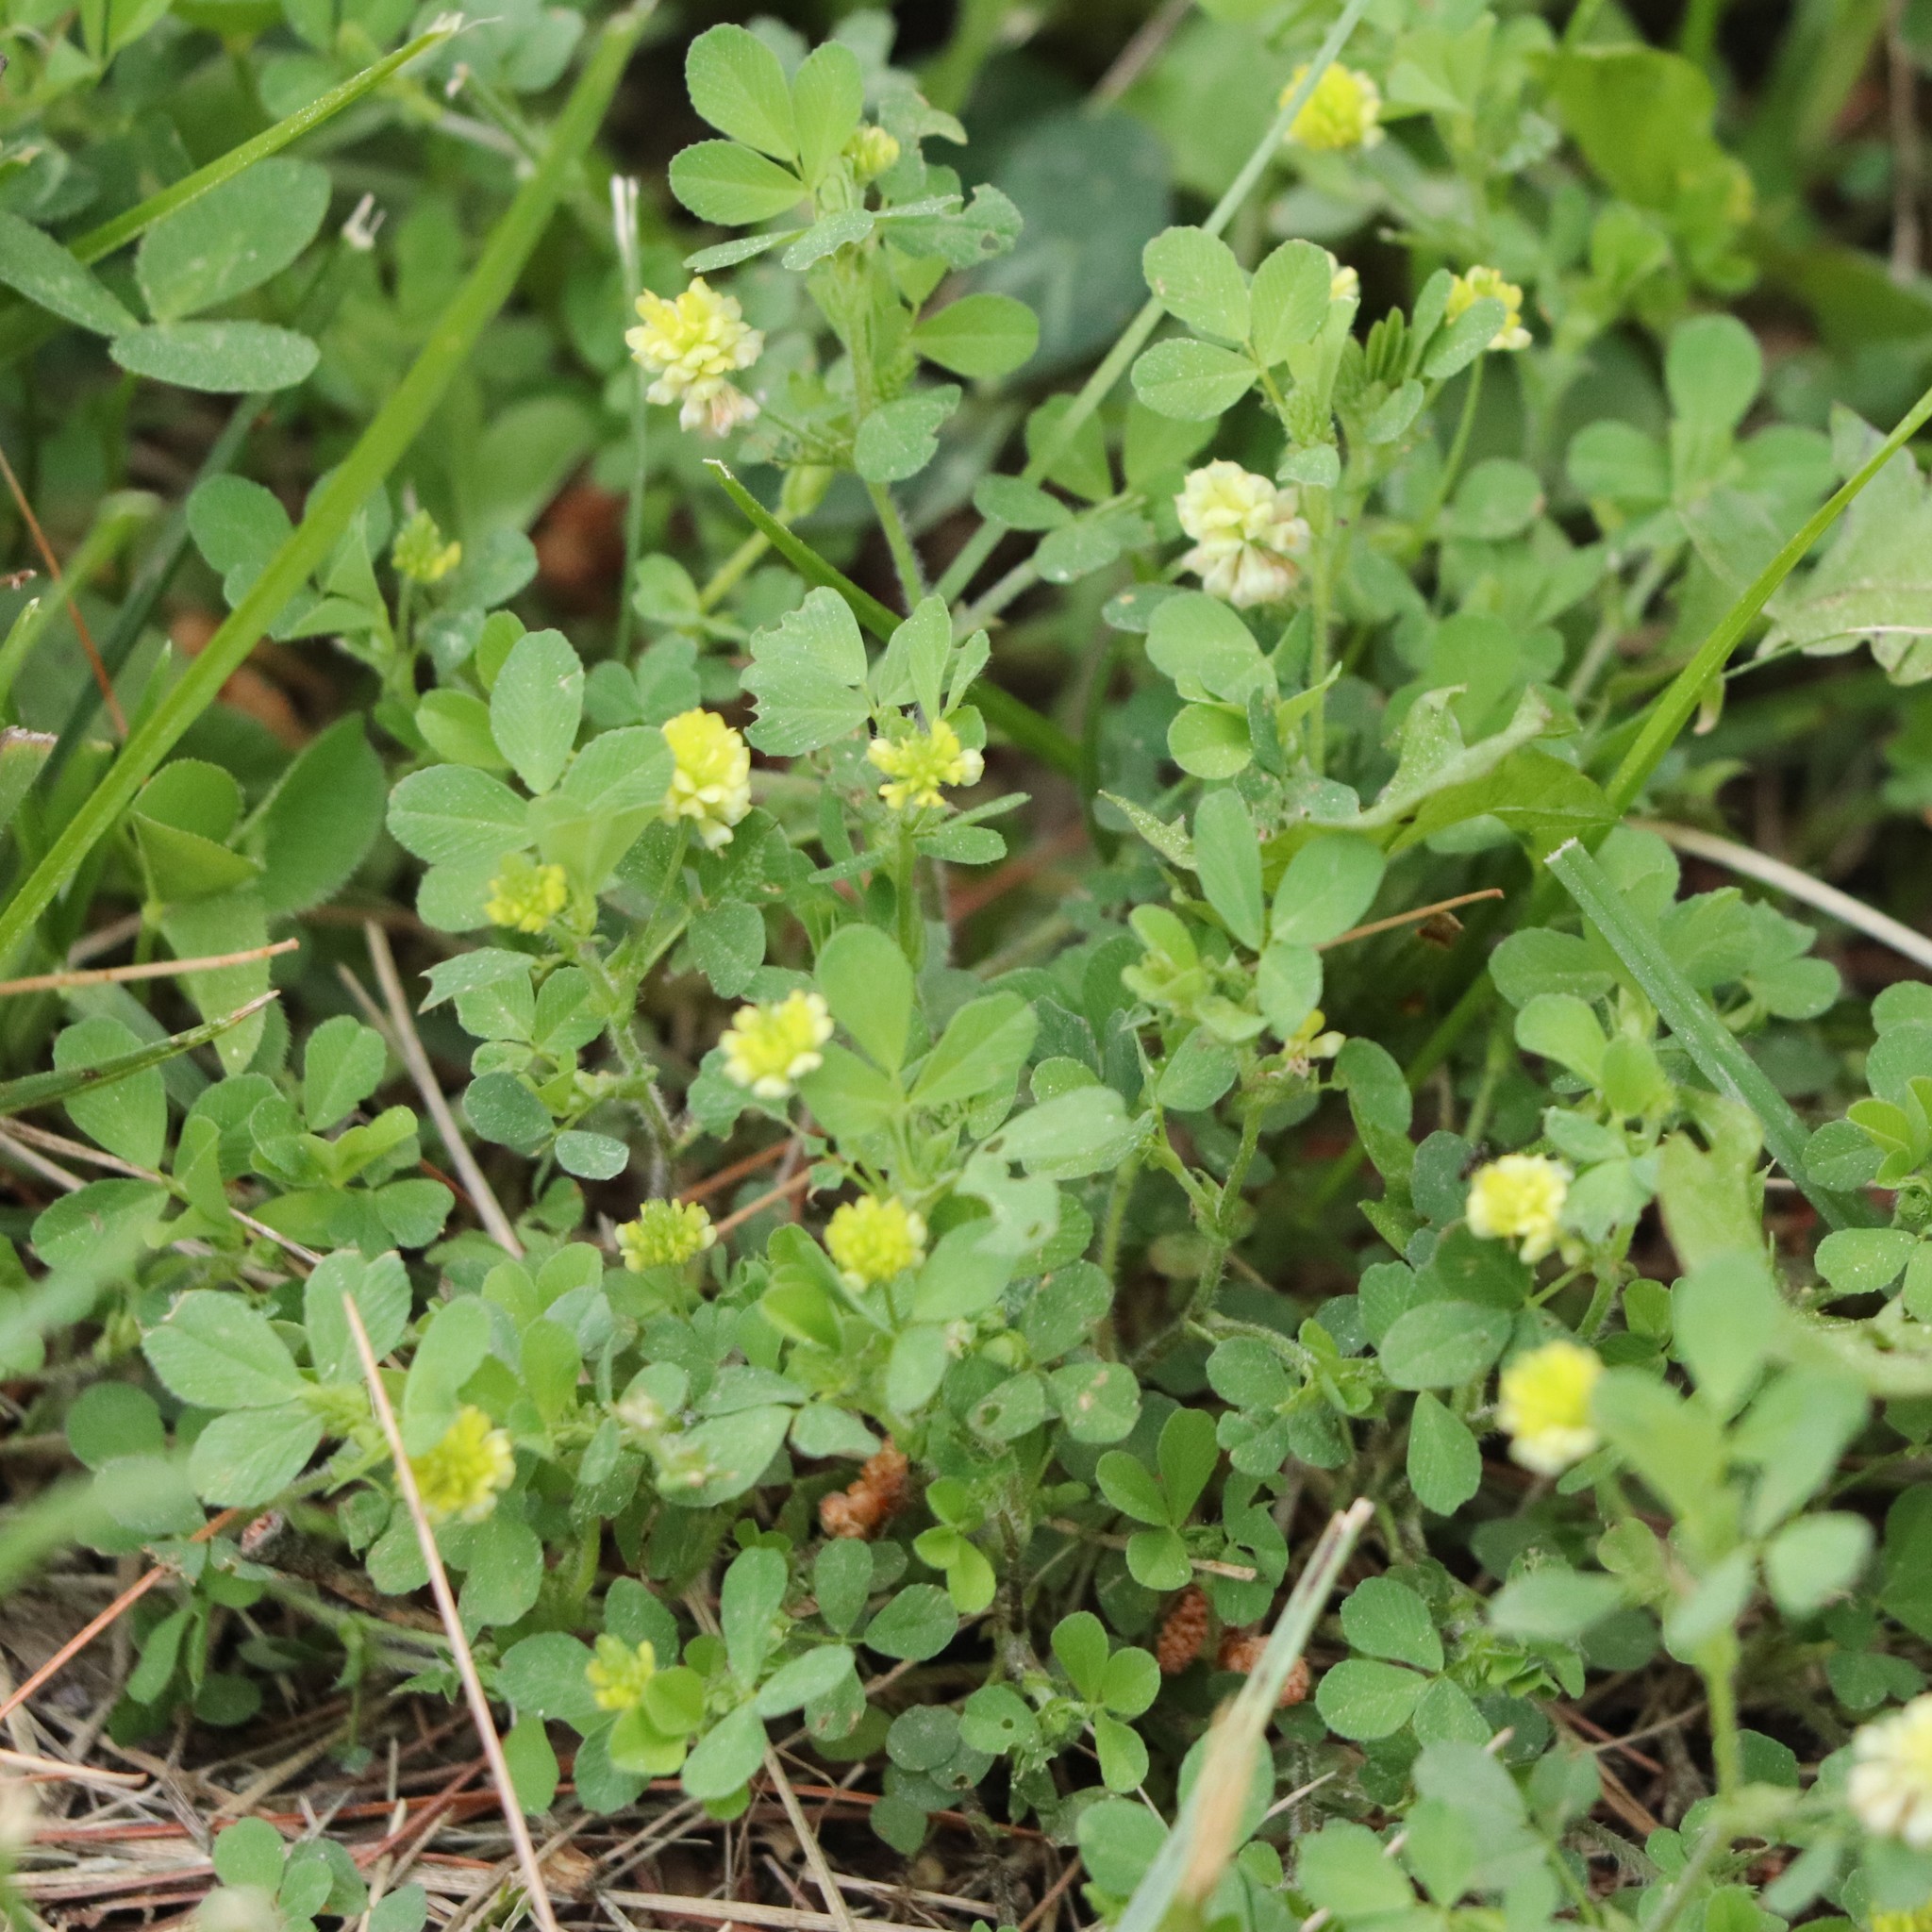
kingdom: Plantae
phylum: Tracheophyta
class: Magnoliopsida
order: Fabales
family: Fabaceae
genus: Trifolium
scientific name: Trifolium campestre
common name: Field clover
